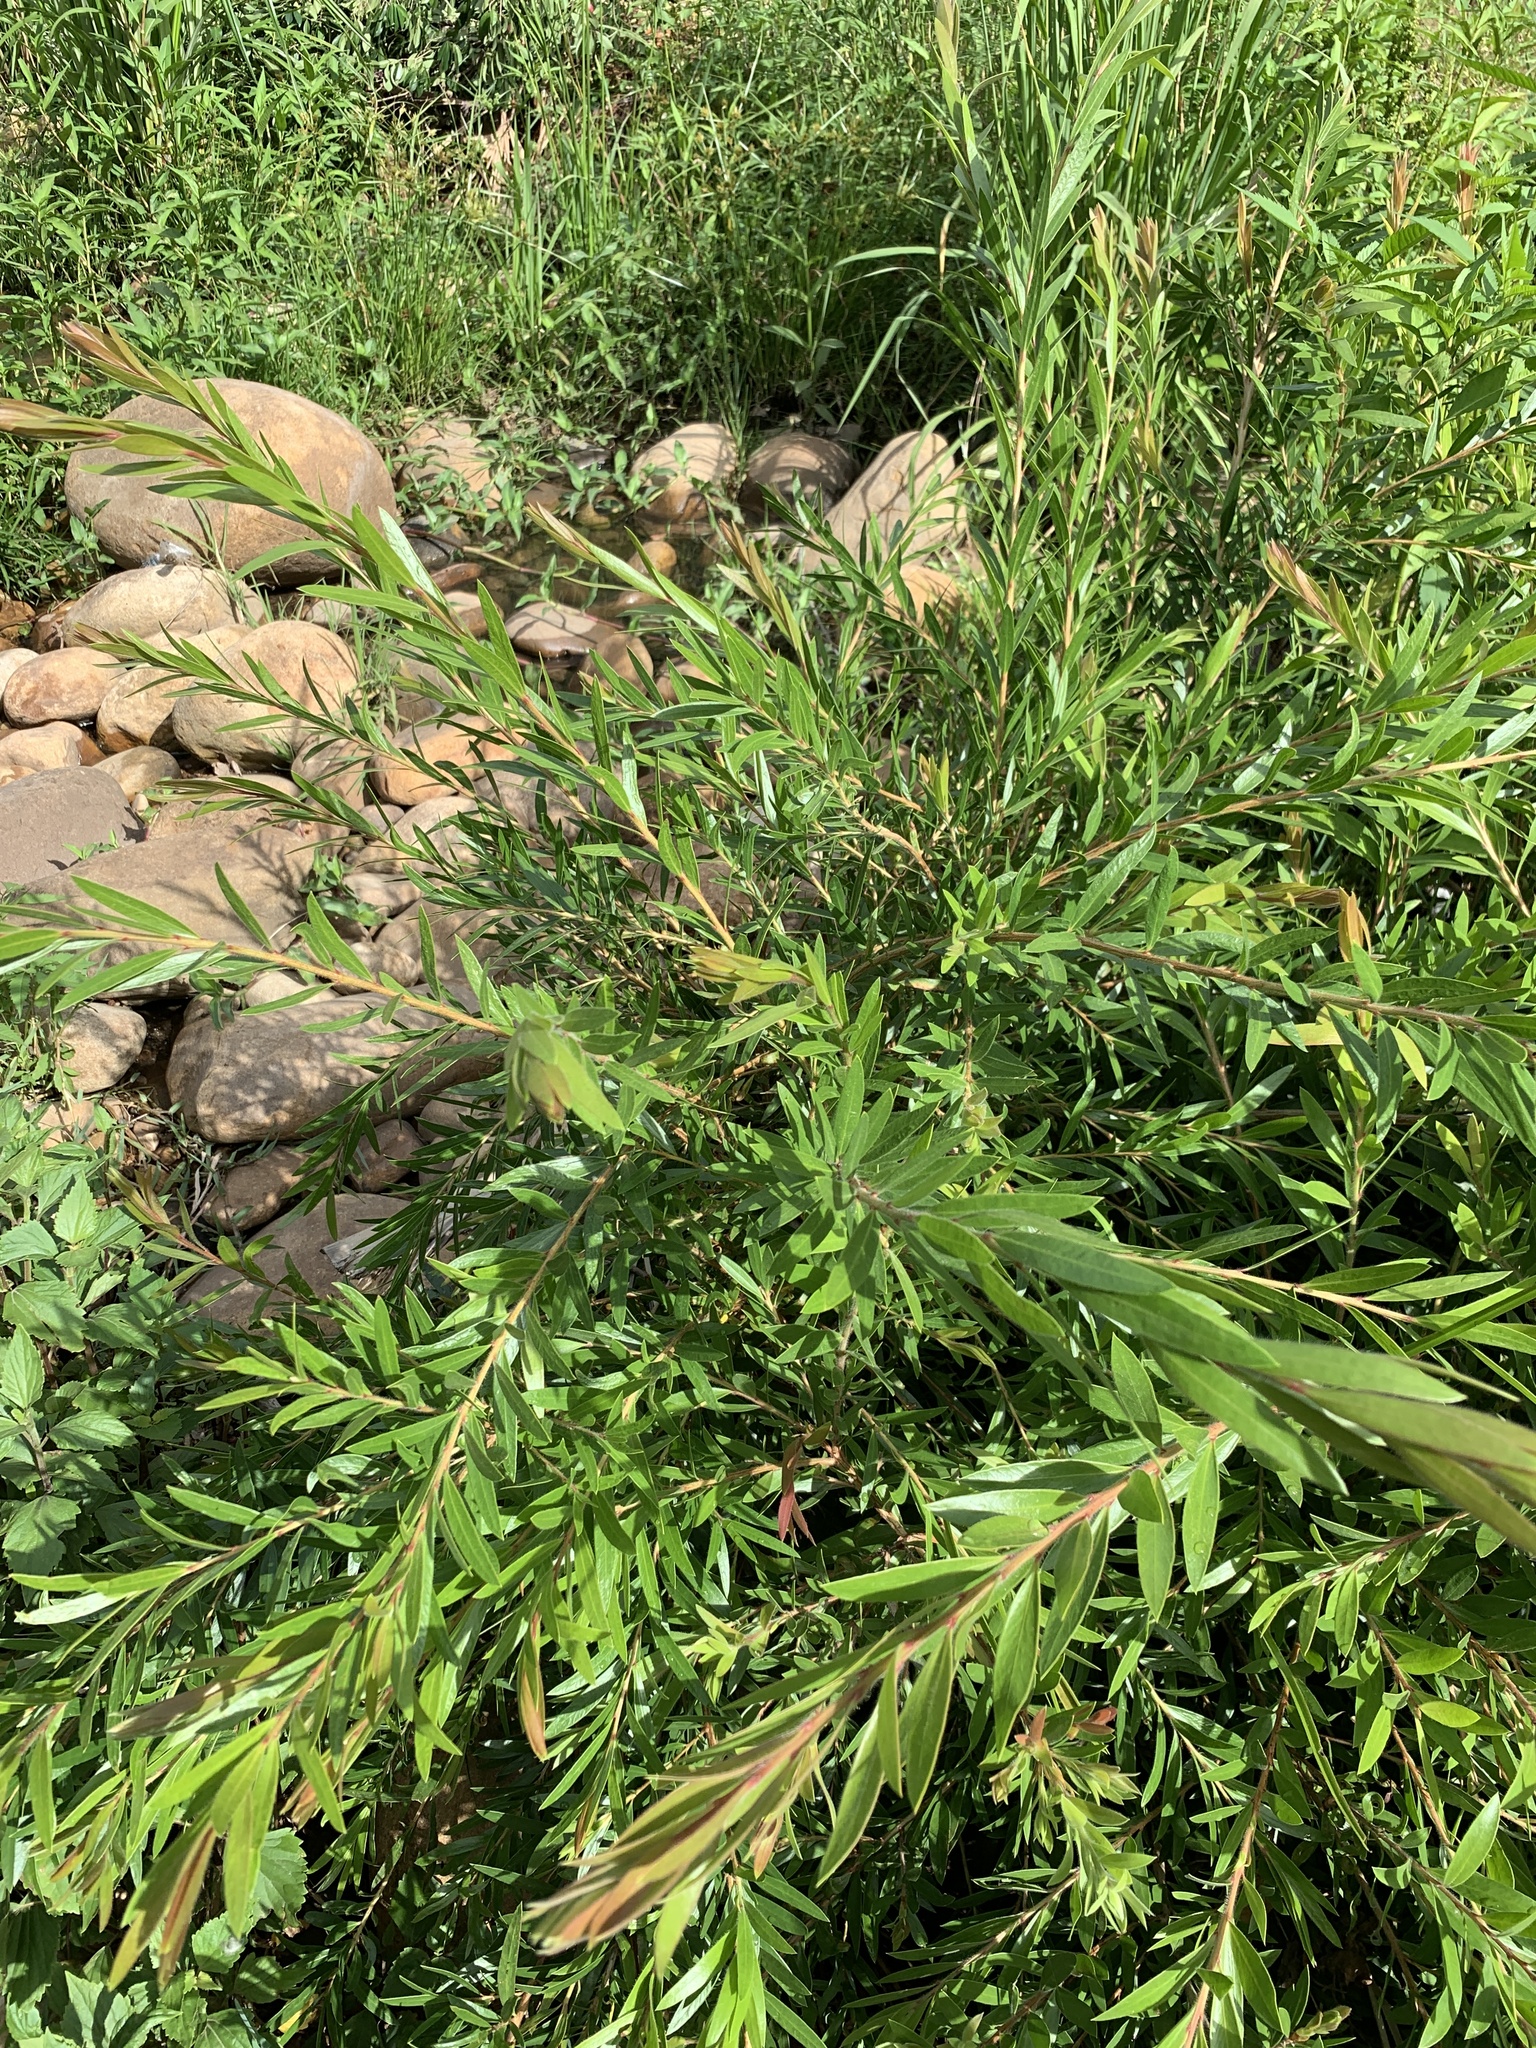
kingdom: Plantae
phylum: Tracheophyta
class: Magnoliopsida
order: Myrtales
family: Myrtaceae
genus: Callistemon
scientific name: Callistemon viminalis
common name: Drooping bottlebrush
